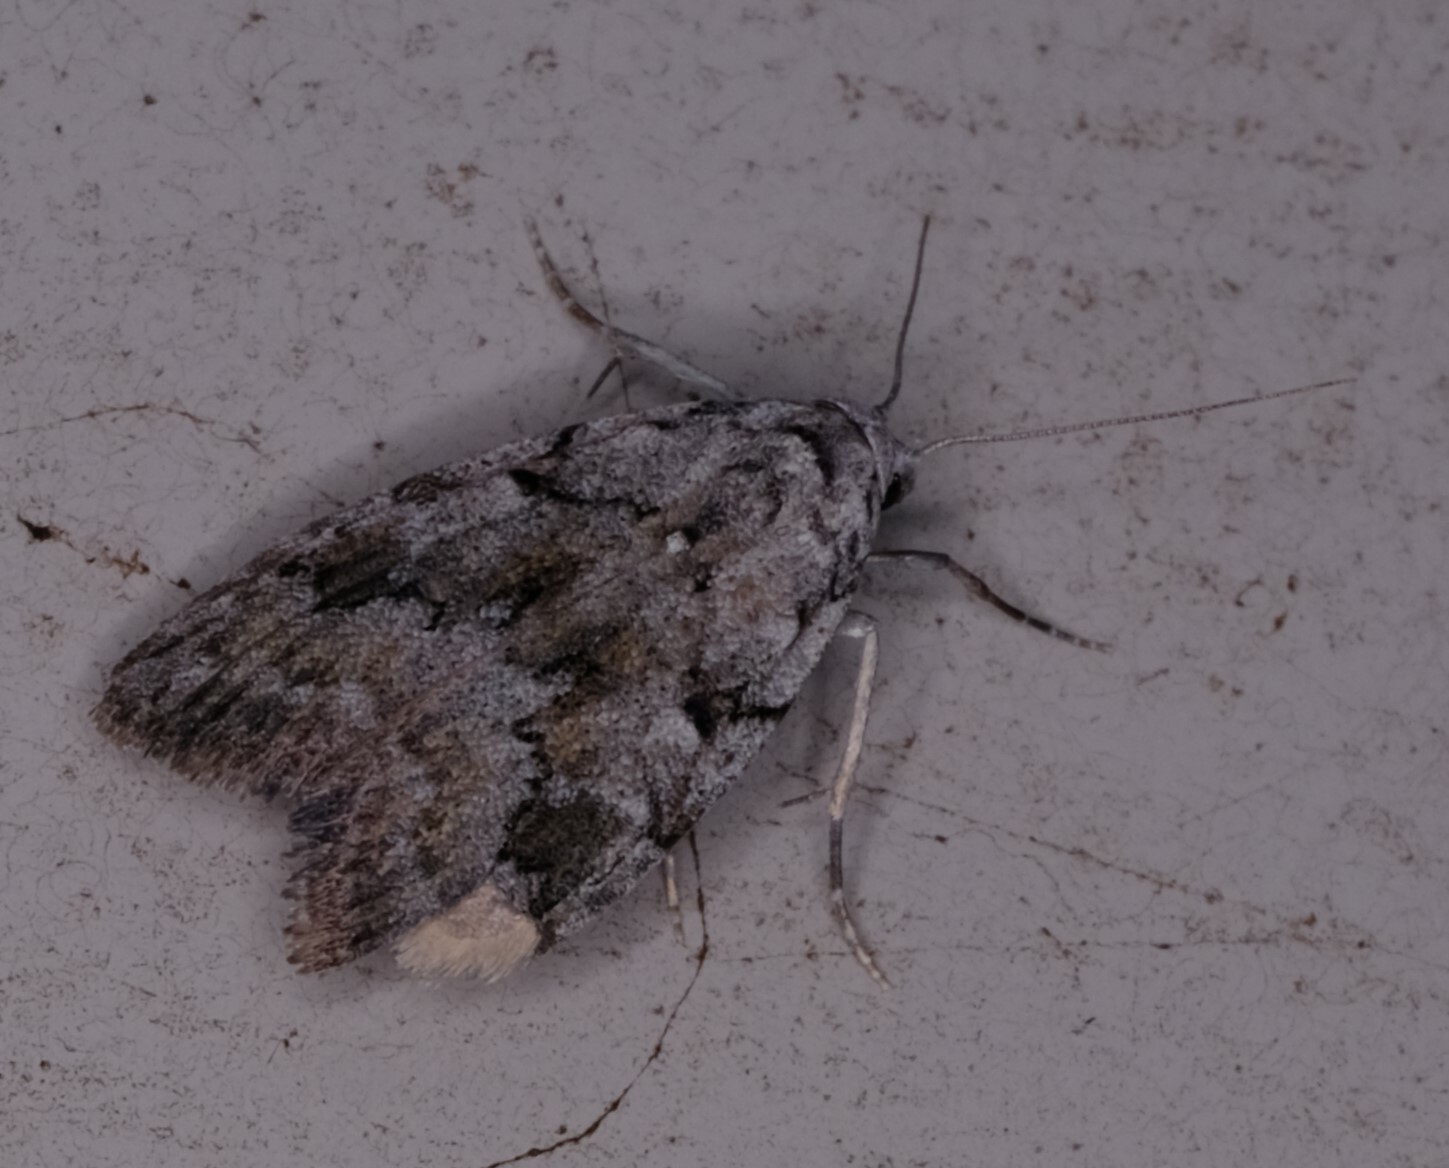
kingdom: Animalia
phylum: Arthropoda
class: Insecta
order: Lepidoptera
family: Nolidae
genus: Nola
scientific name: Nola cycota
